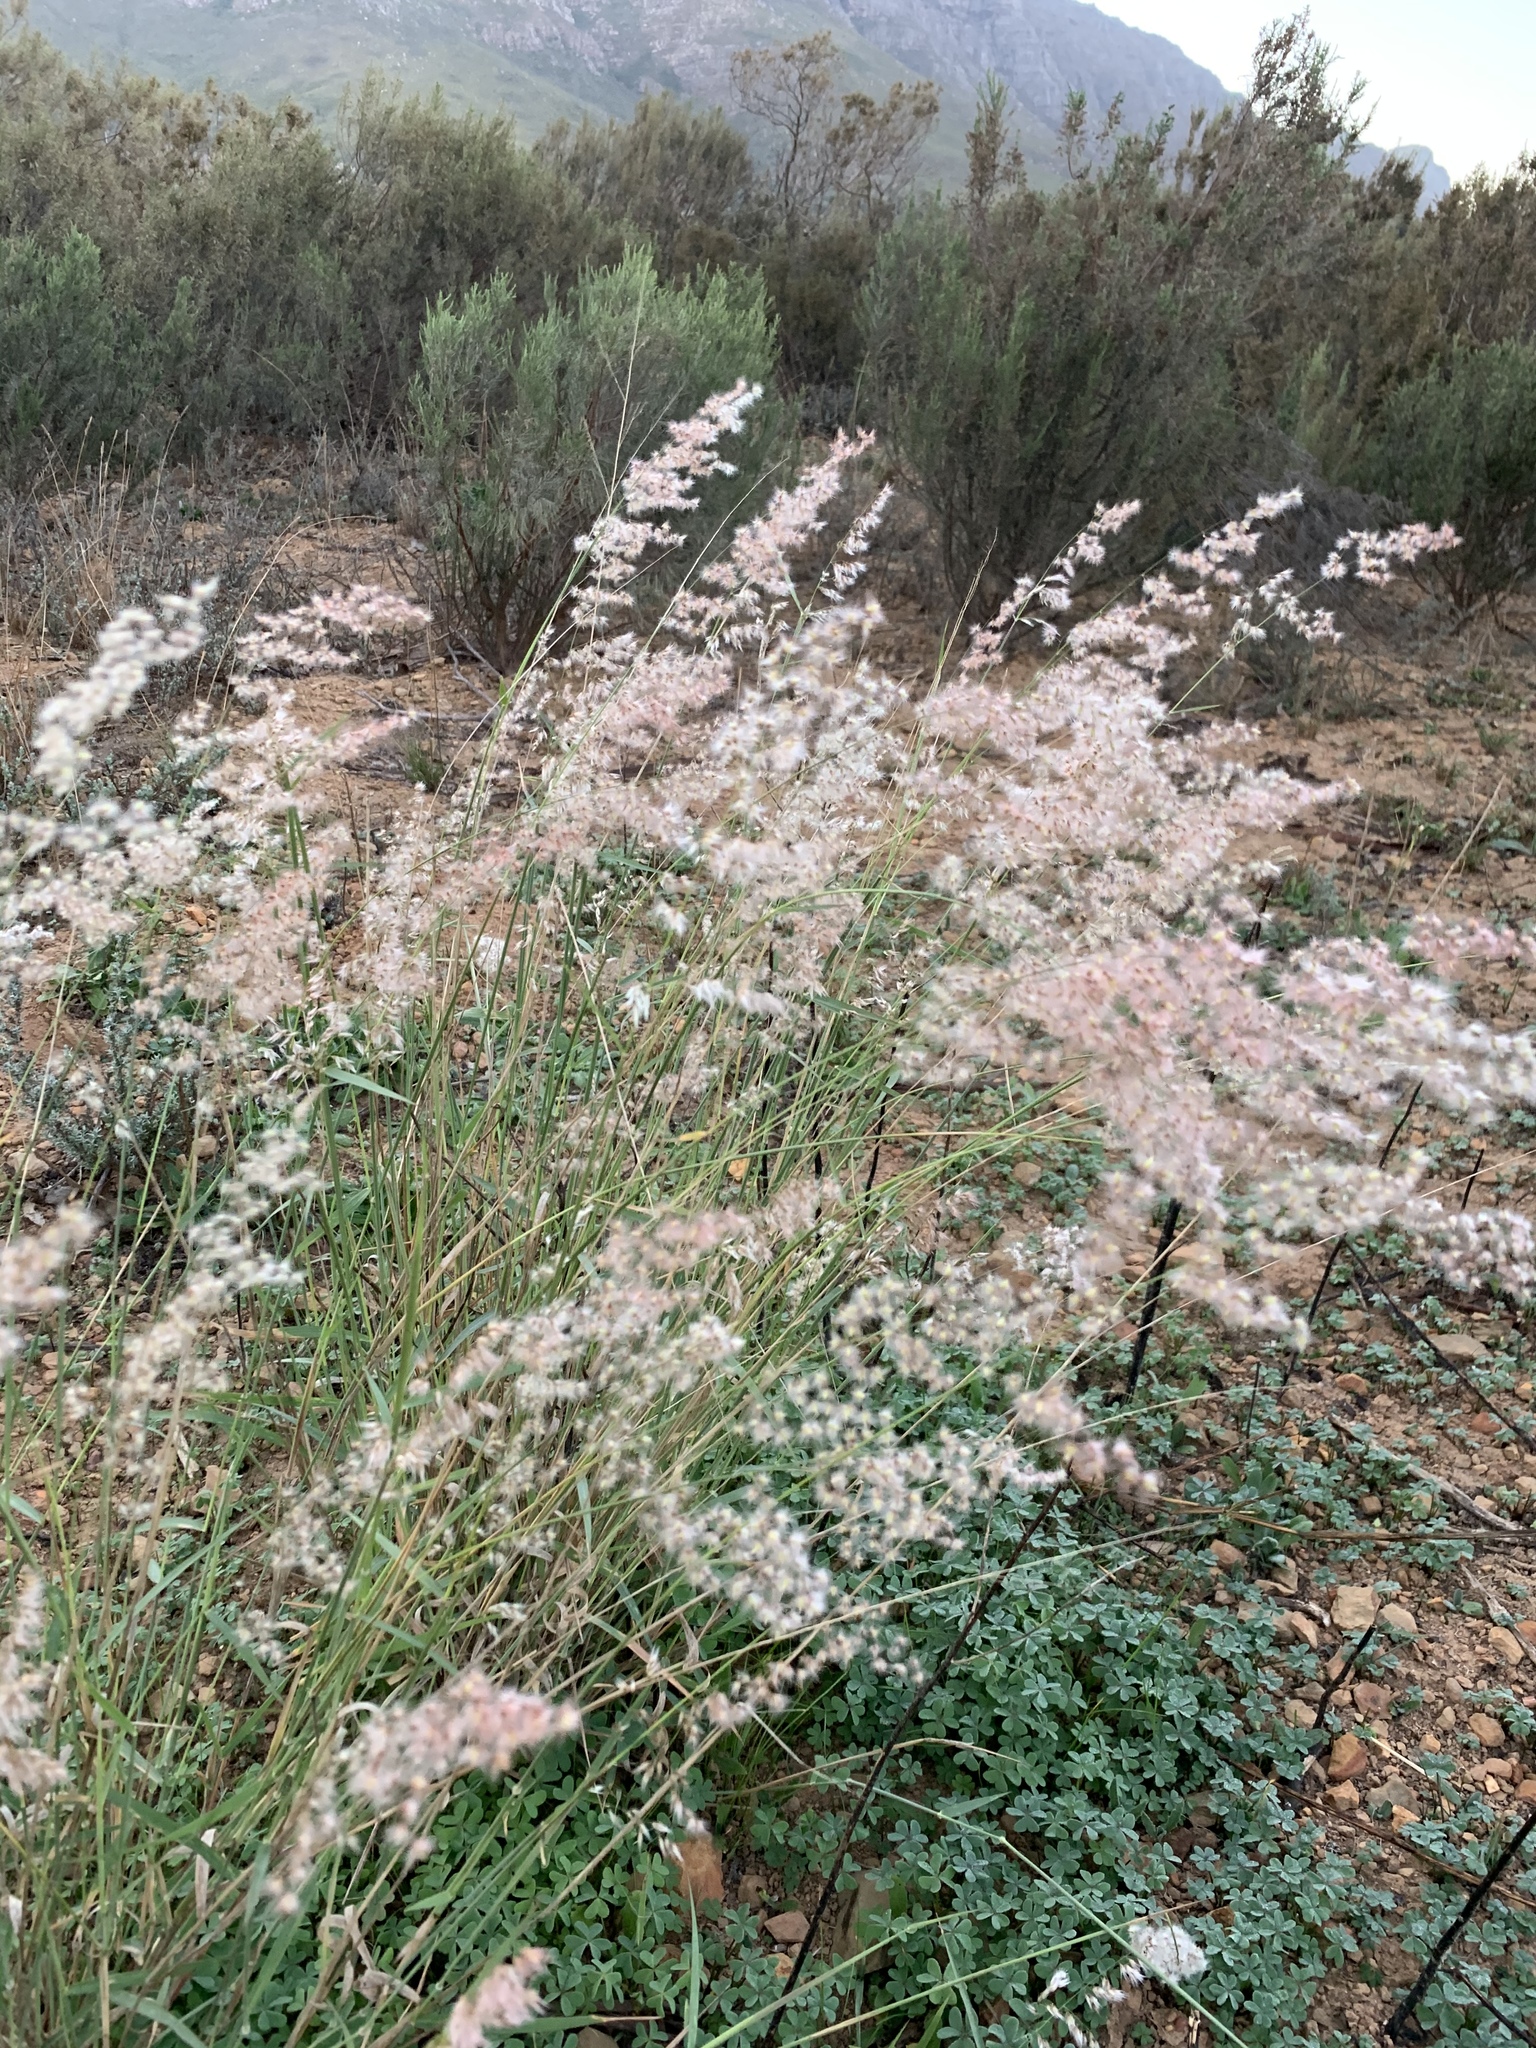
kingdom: Plantae
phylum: Tracheophyta
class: Liliopsida
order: Poales
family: Poaceae
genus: Melinis
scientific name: Melinis repens
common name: Rose natal grass
